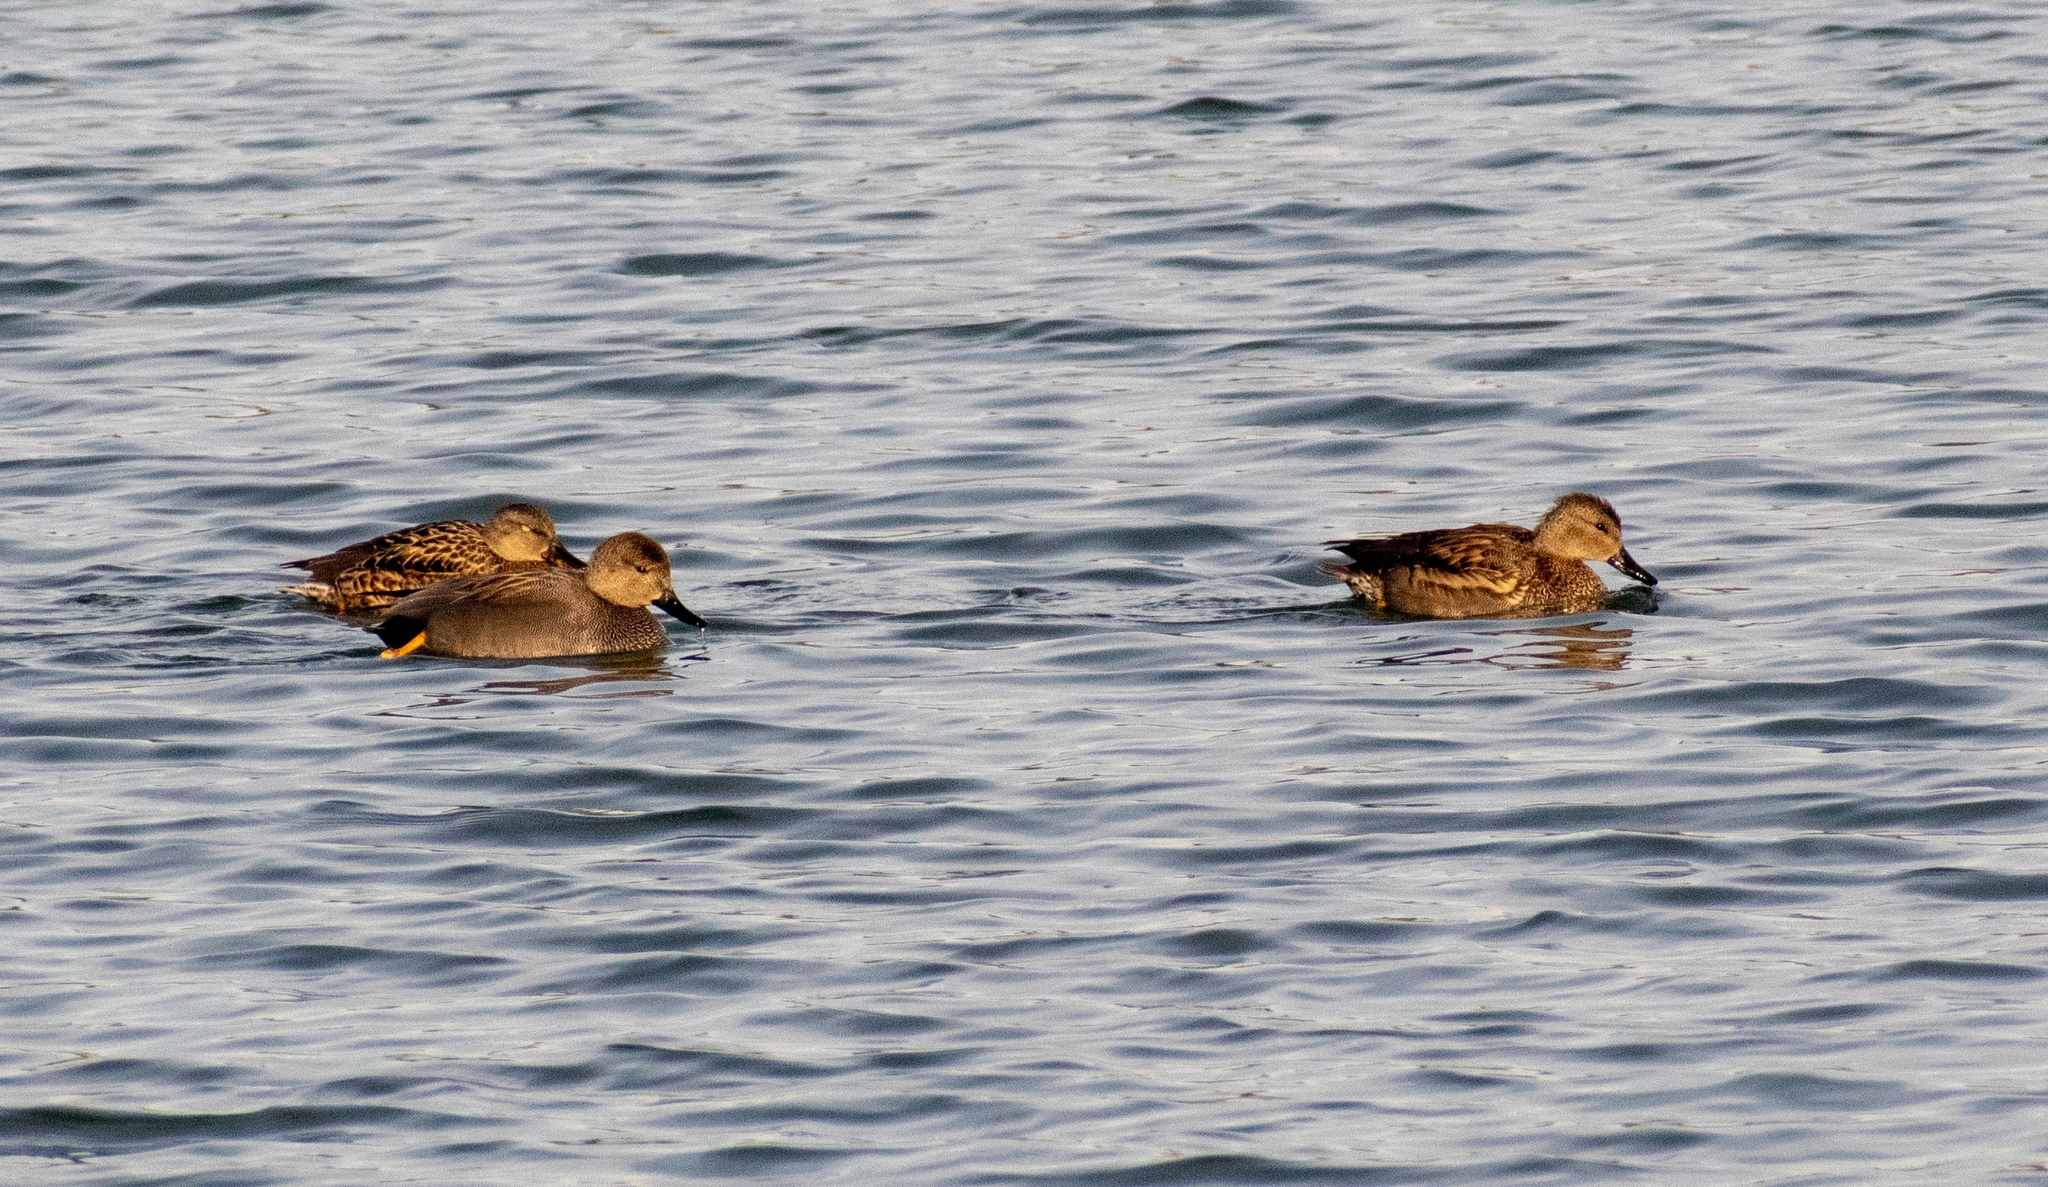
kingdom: Animalia
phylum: Chordata
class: Aves
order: Anseriformes
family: Anatidae
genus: Mareca
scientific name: Mareca strepera
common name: Gadwall
